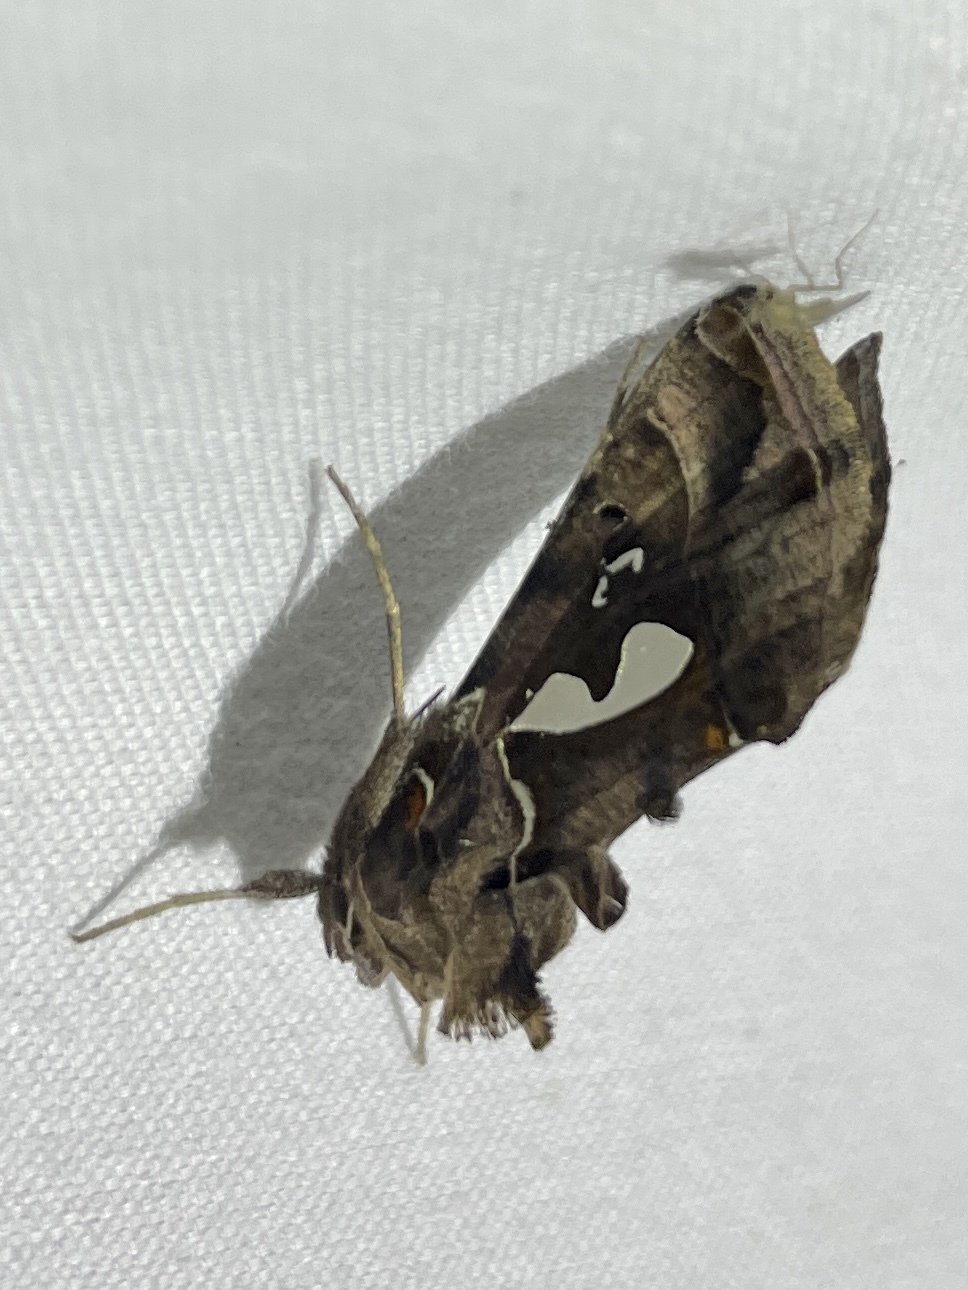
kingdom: Animalia
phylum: Arthropoda
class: Insecta
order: Lepidoptera
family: Noctuidae
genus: Megalographa
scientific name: Megalographa biloba
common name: Cutworm
